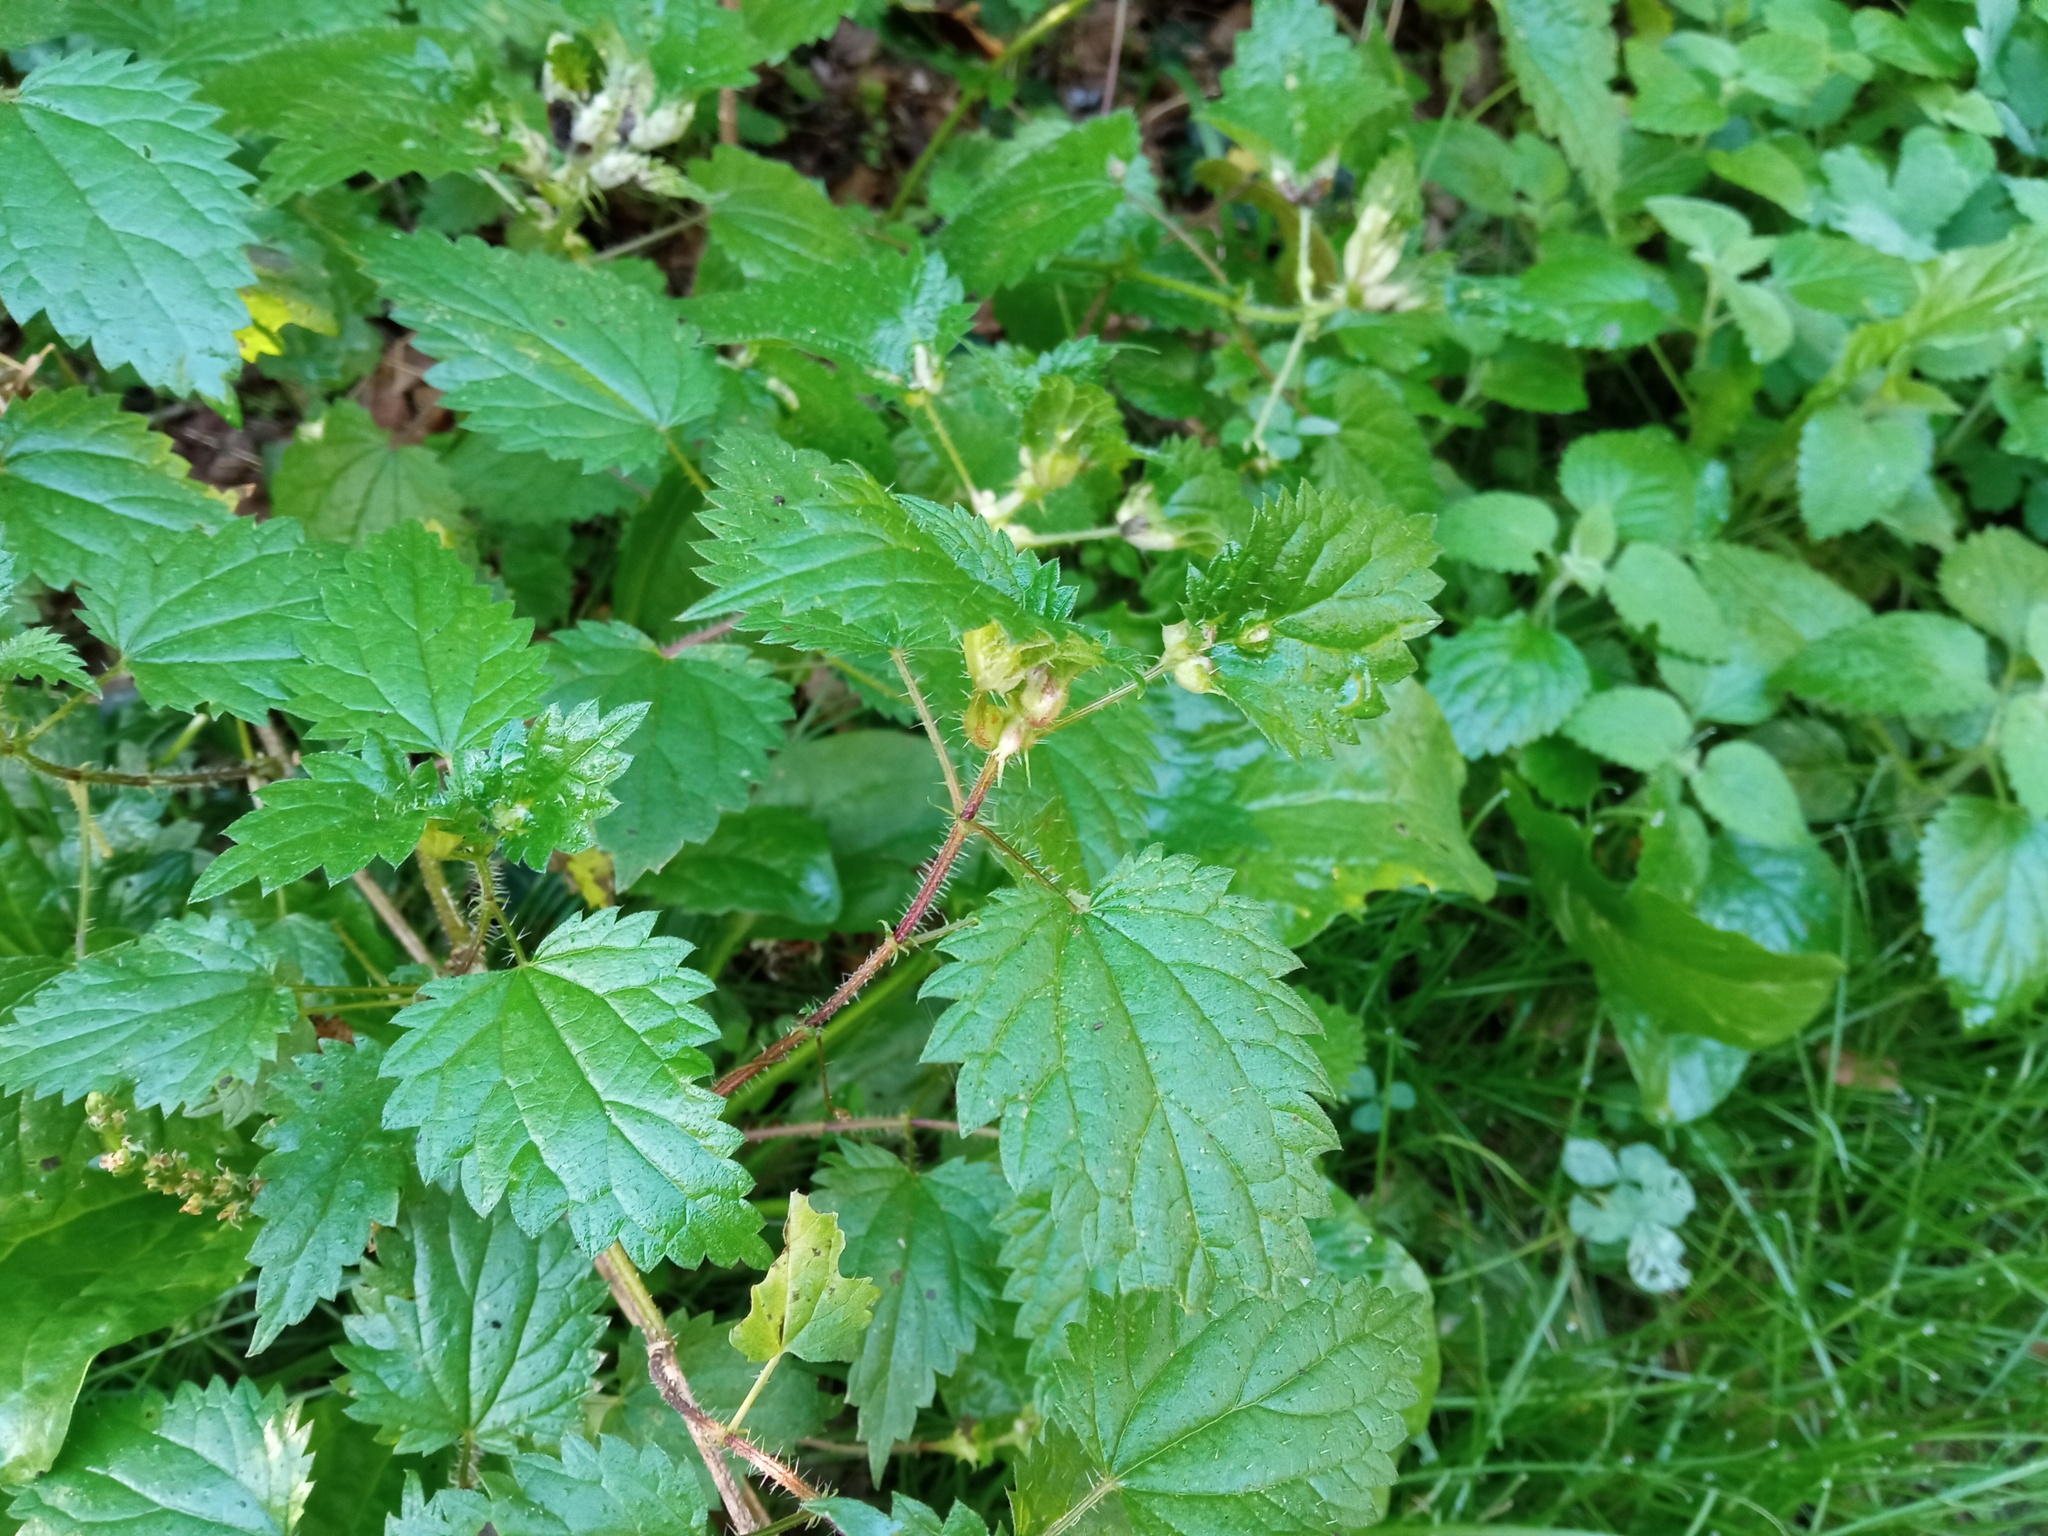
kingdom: Animalia
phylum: Arthropoda
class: Insecta
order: Diptera
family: Cecidomyiidae
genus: Dasineura
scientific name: Dasineura urticae
